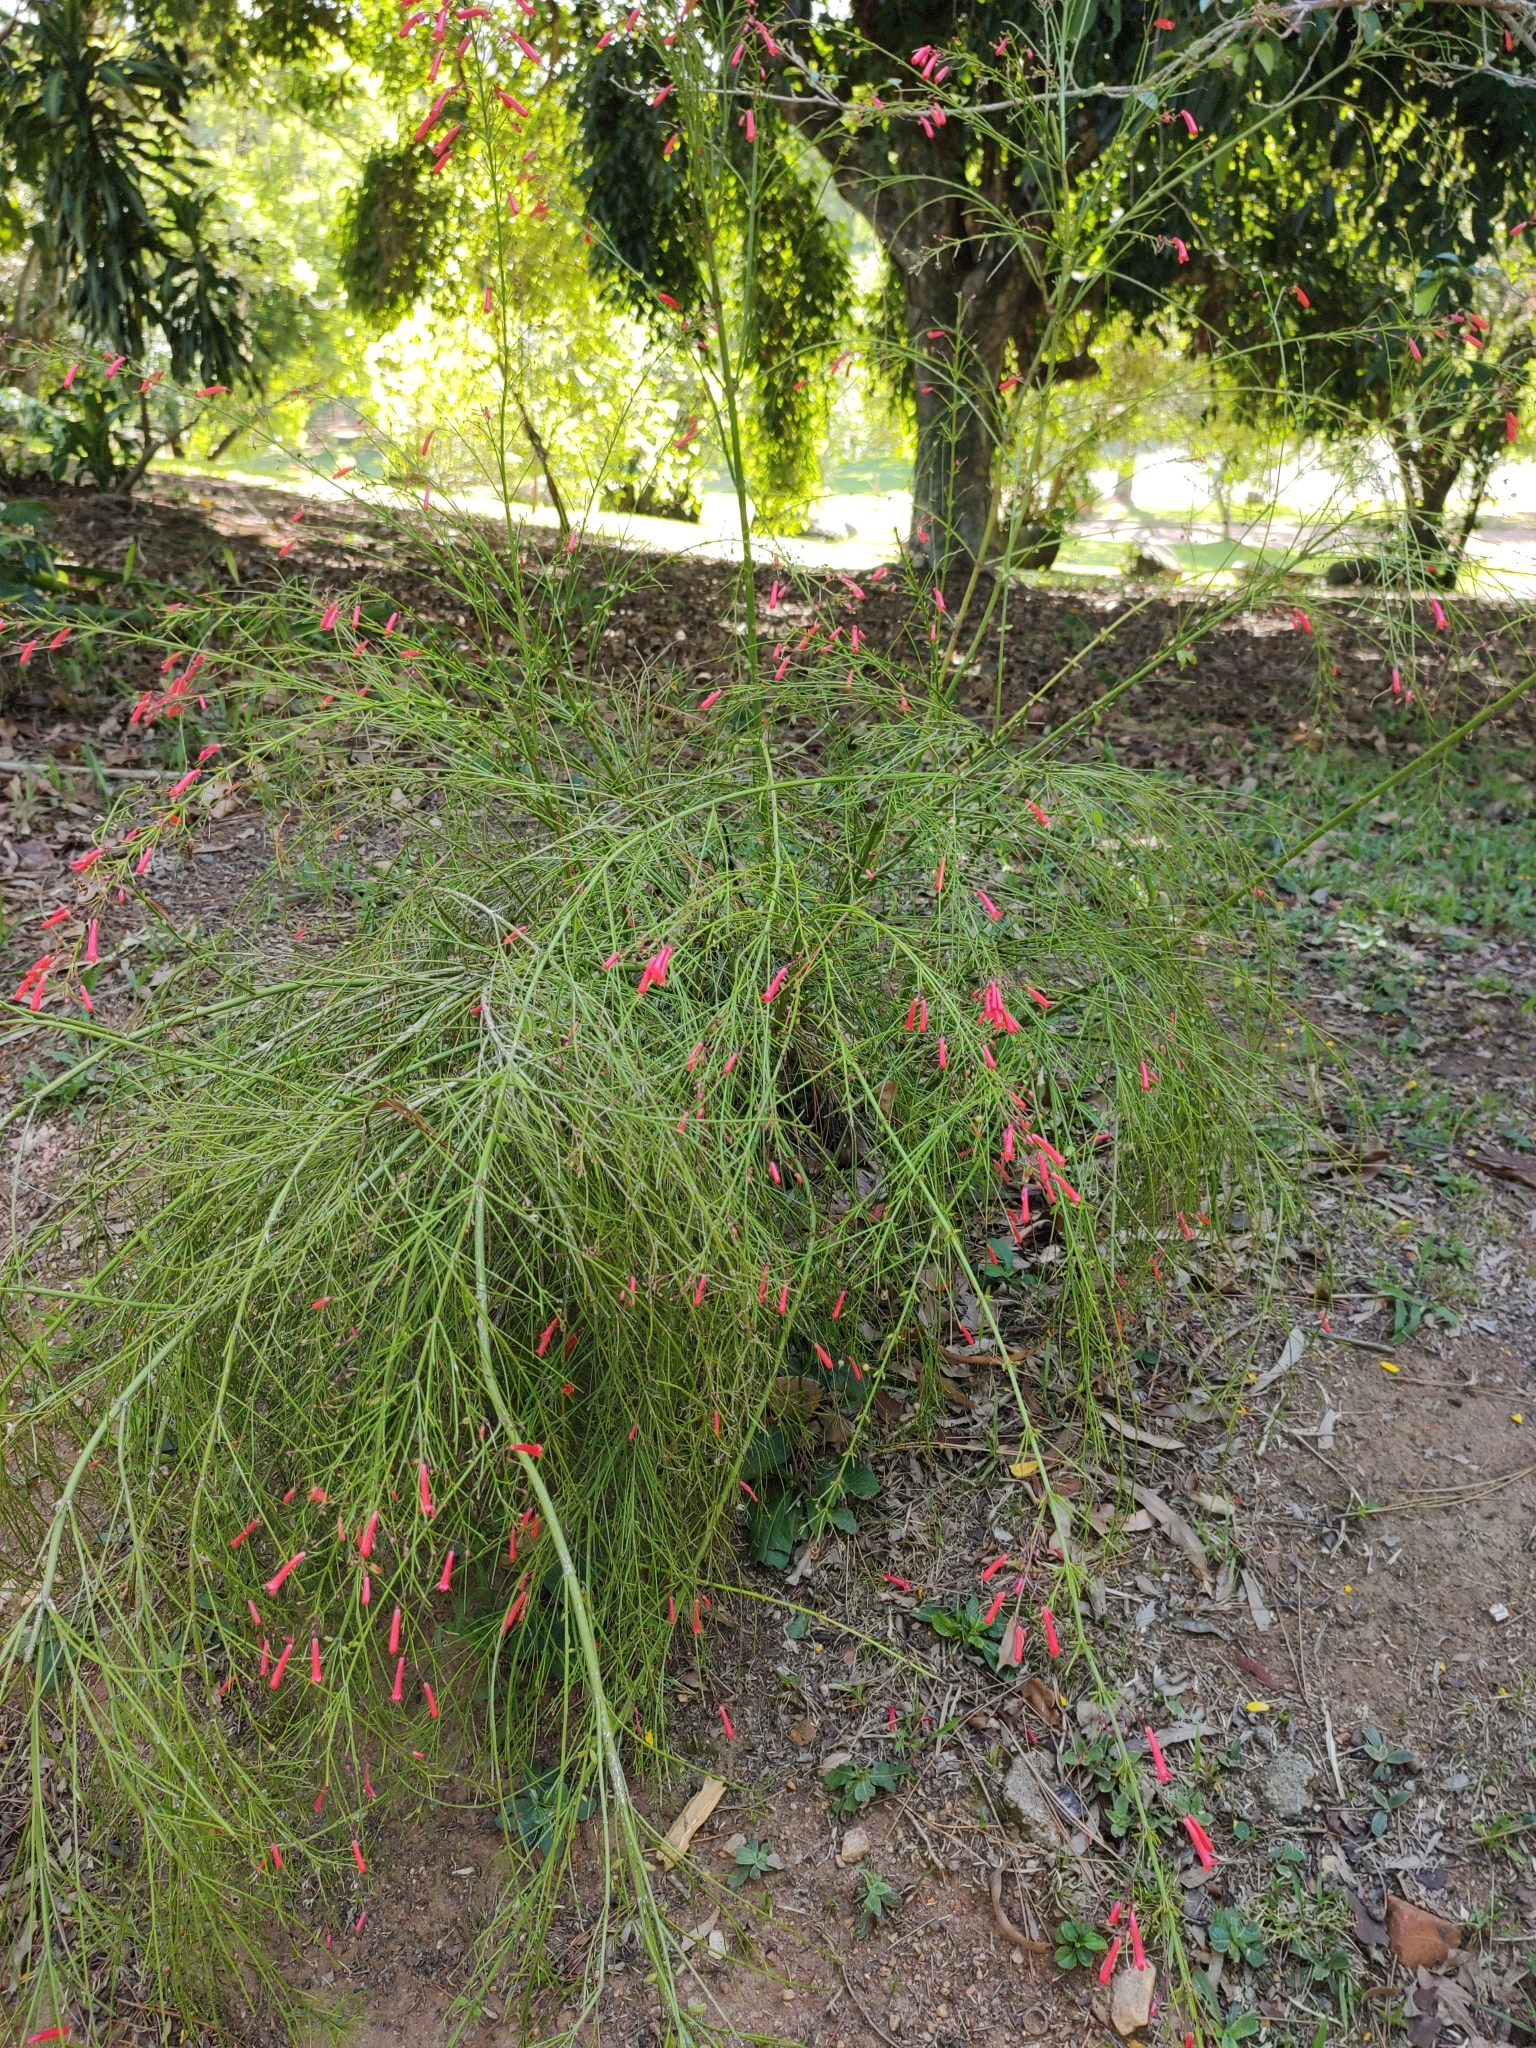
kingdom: Plantae
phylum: Tracheophyta
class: Magnoliopsida
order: Lamiales
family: Plantaginaceae
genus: Russelia
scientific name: Russelia equisetiformis
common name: Fountainbush
